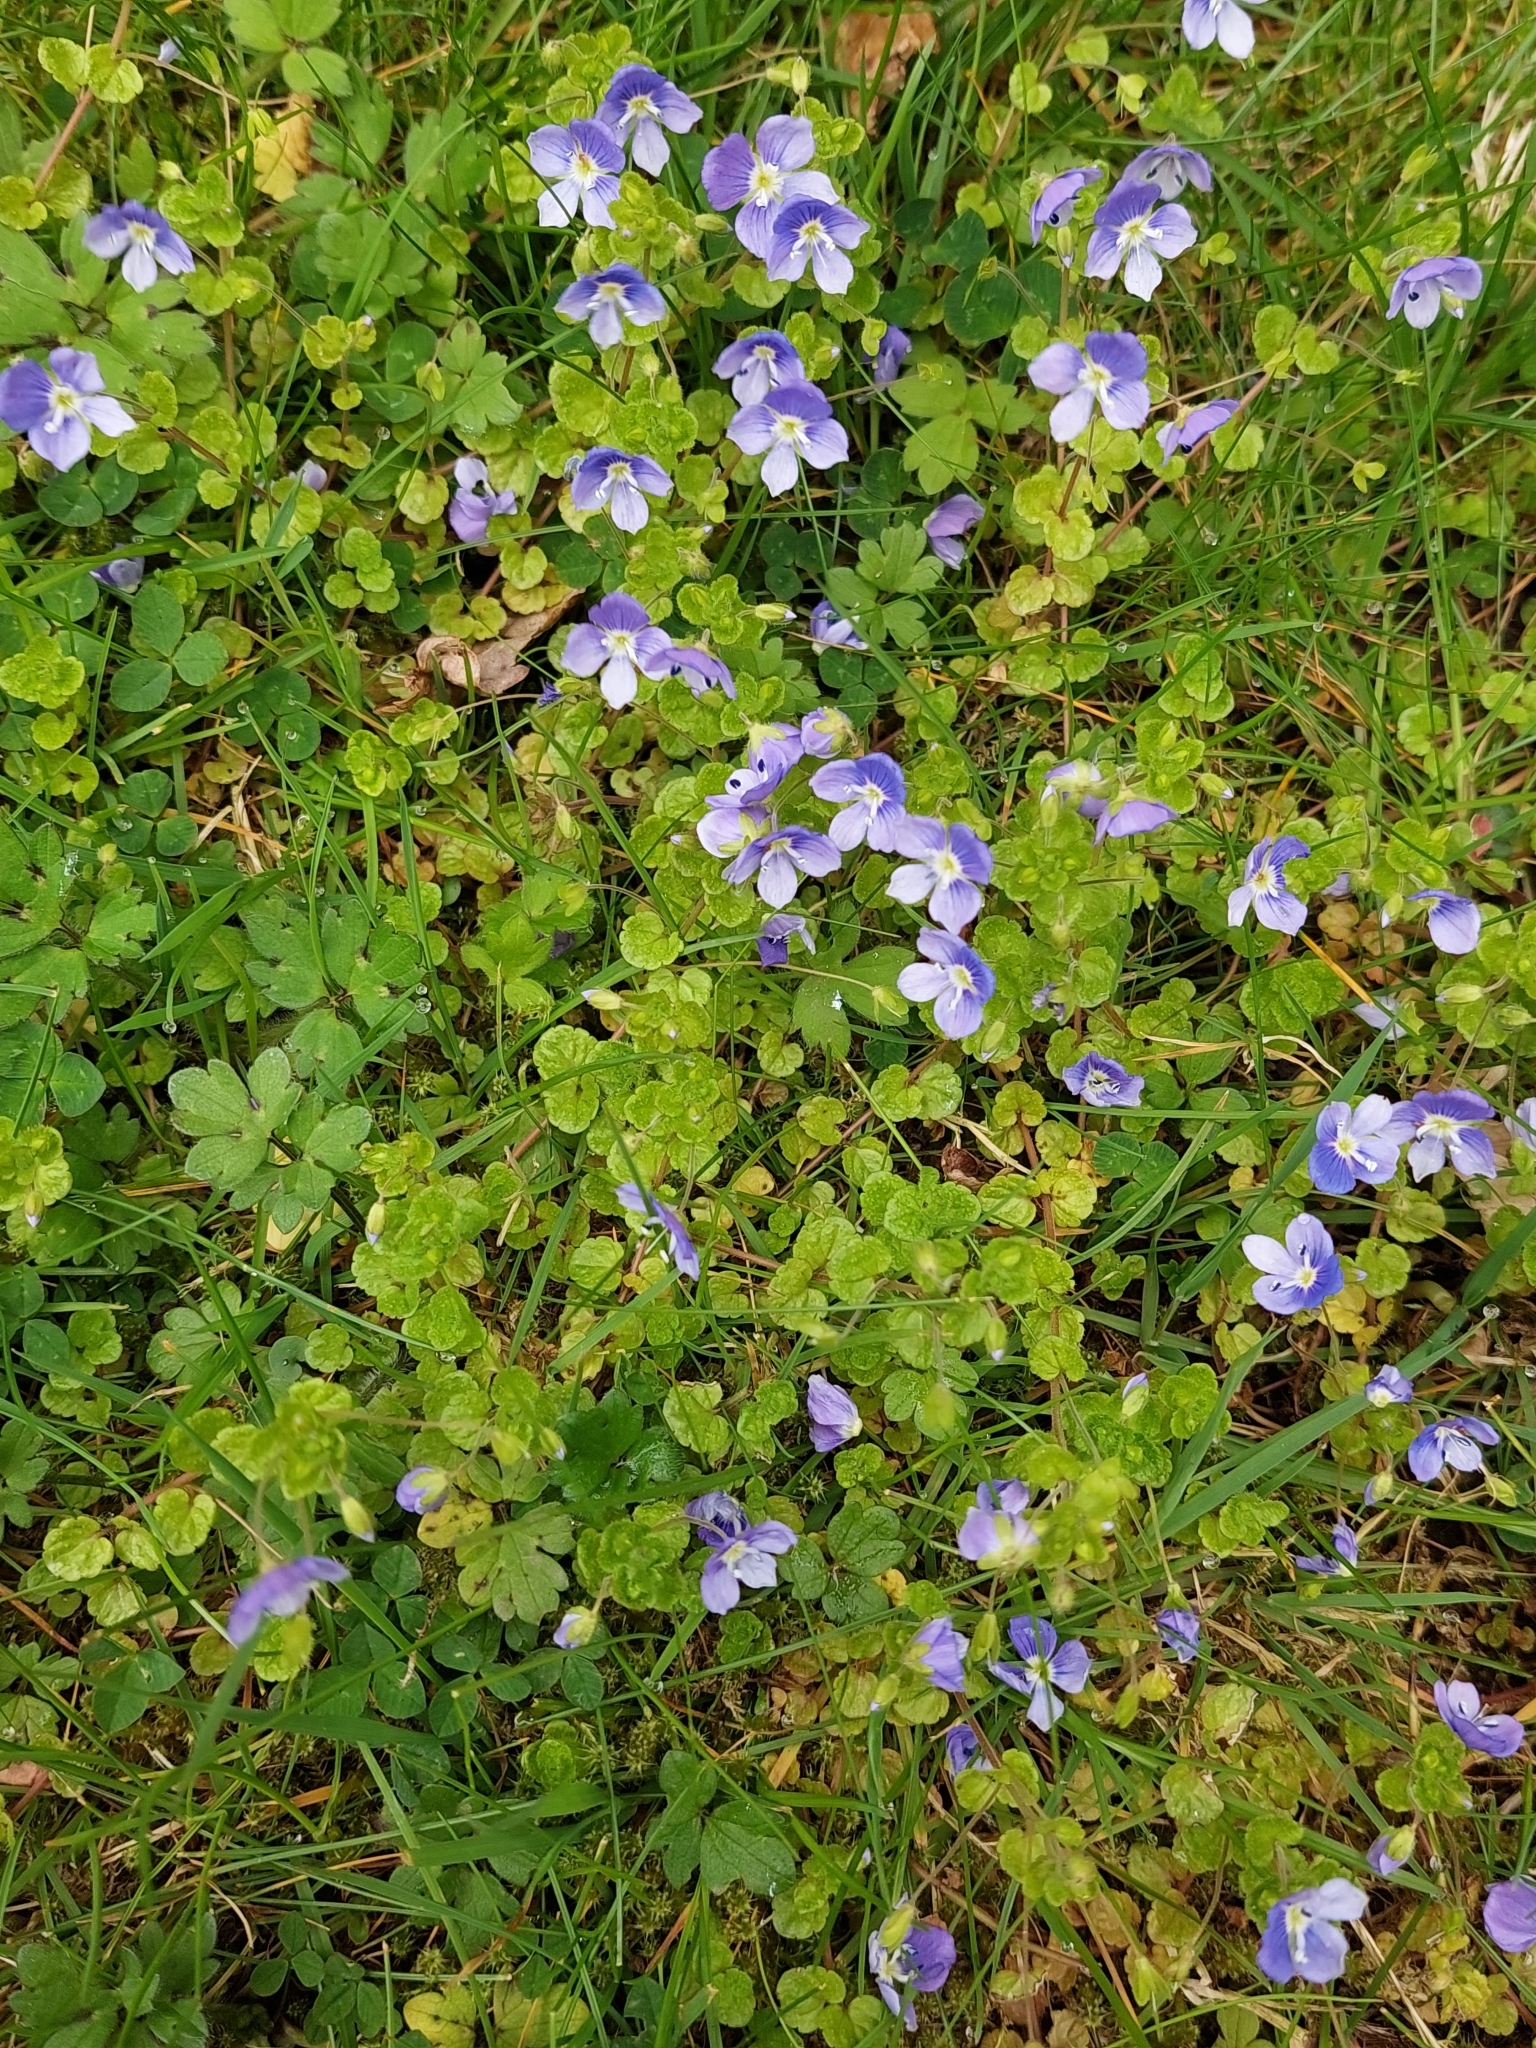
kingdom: Plantae
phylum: Tracheophyta
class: Magnoliopsida
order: Lamiales
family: Plantaginaceae
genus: Veronica
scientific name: Veronica filiformis
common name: Slender speedwell
